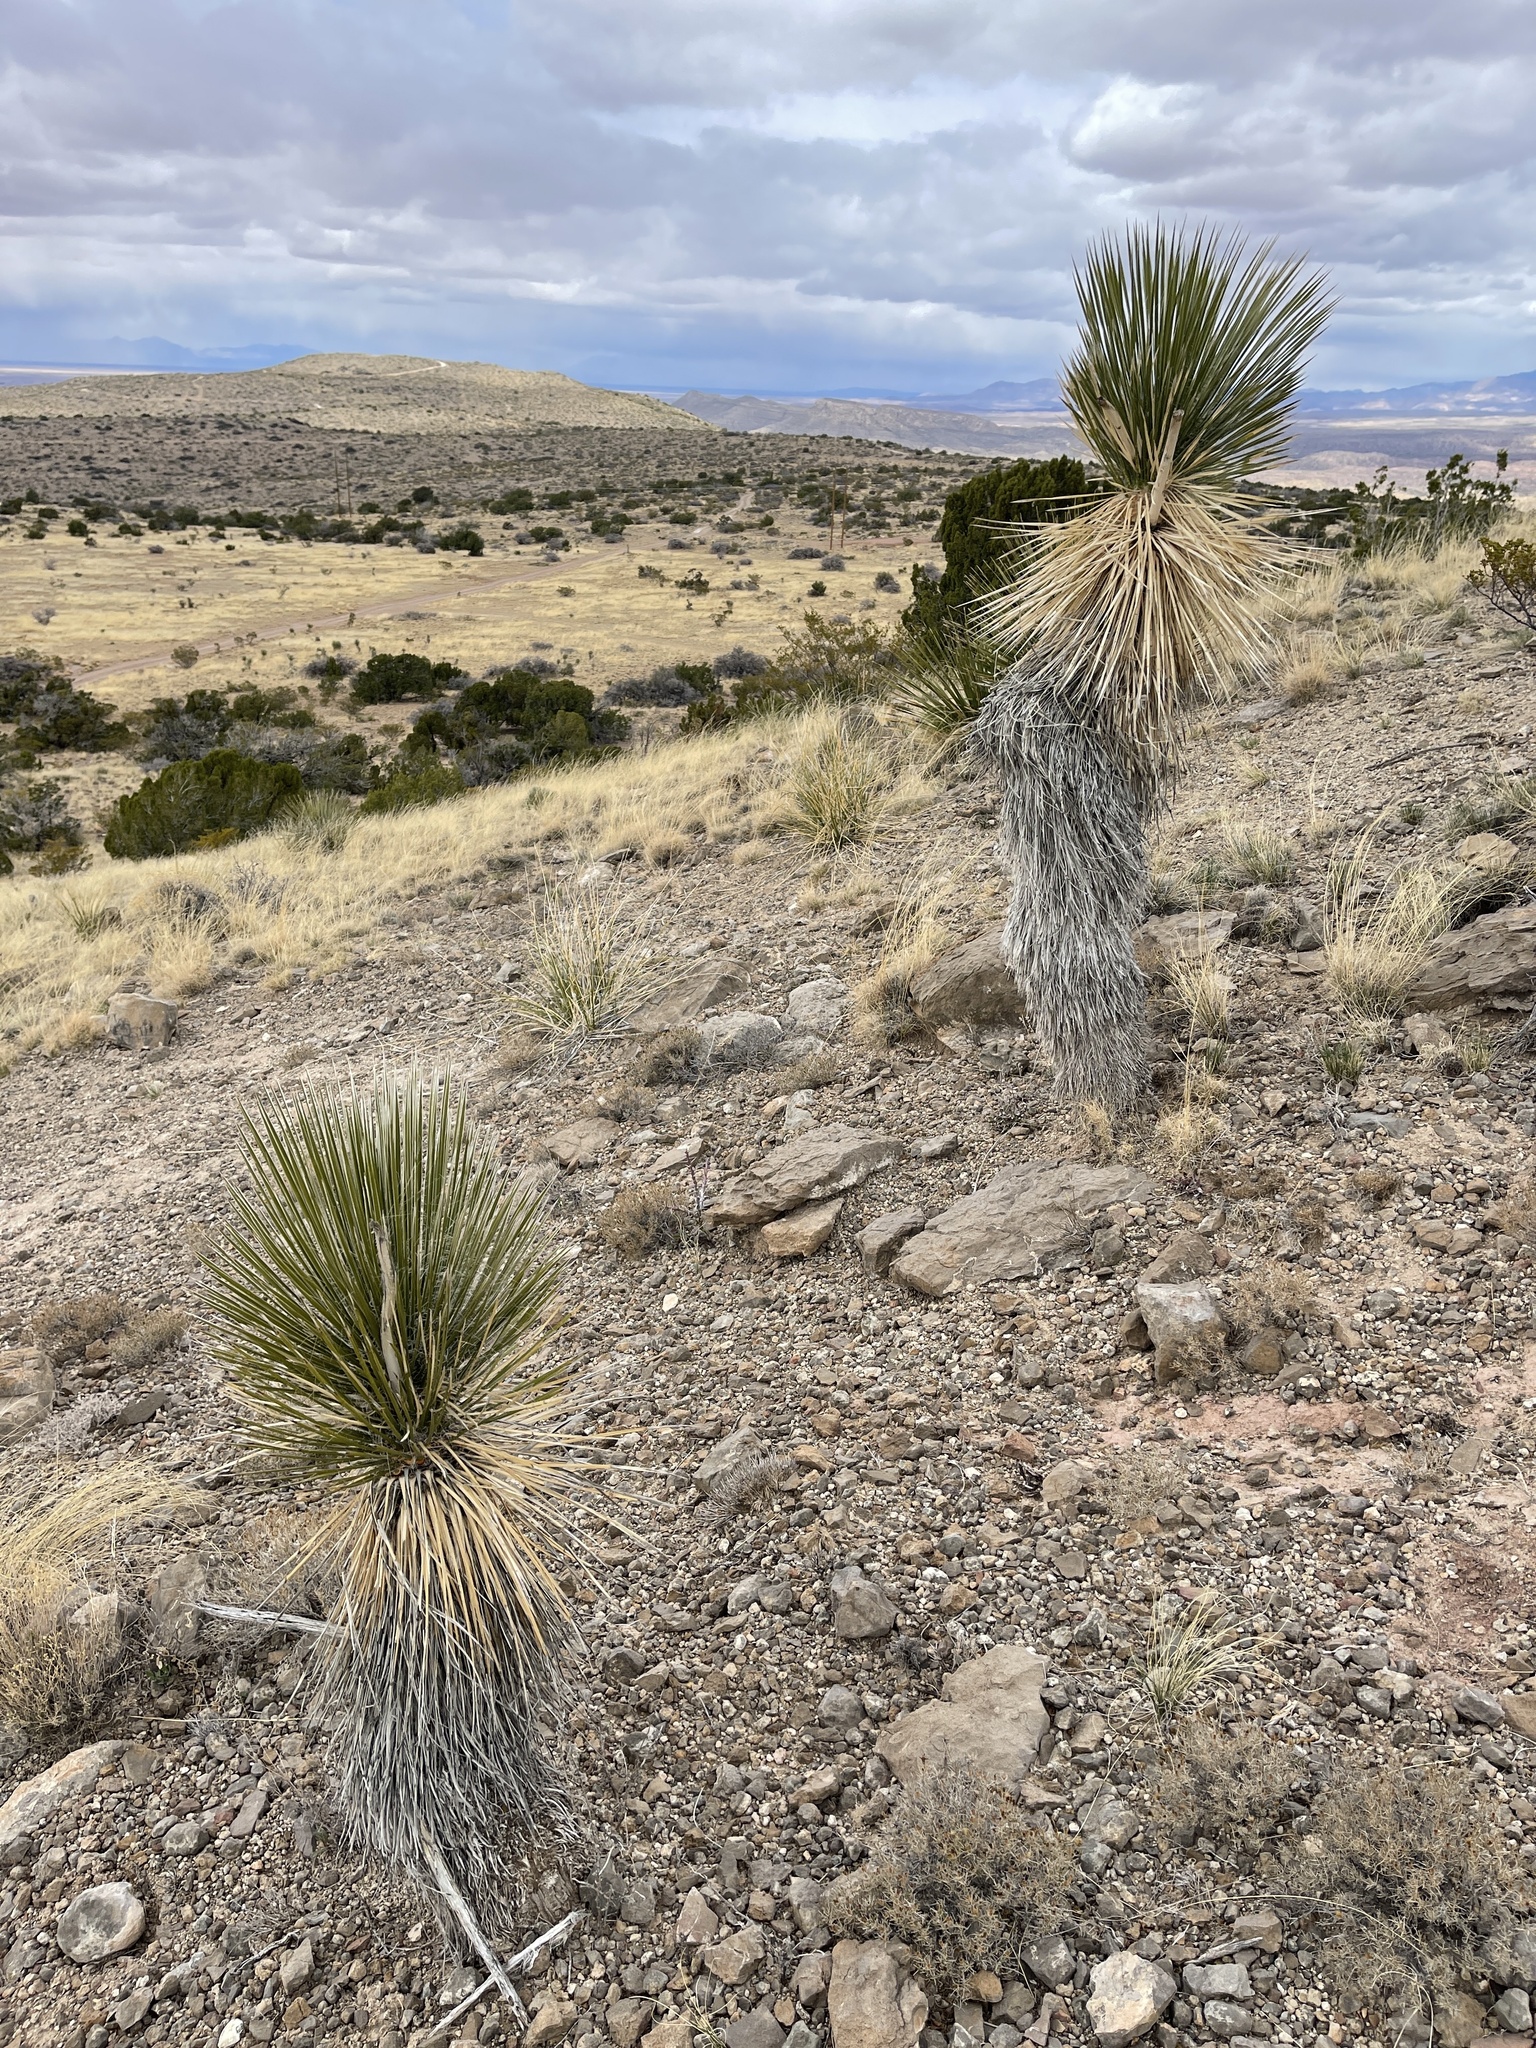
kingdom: Plantae
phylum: Tracheophyta
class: Liliopsida
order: Asparagales
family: Asparagaceae
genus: Yucca
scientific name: Yucca elata
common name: Palmella
